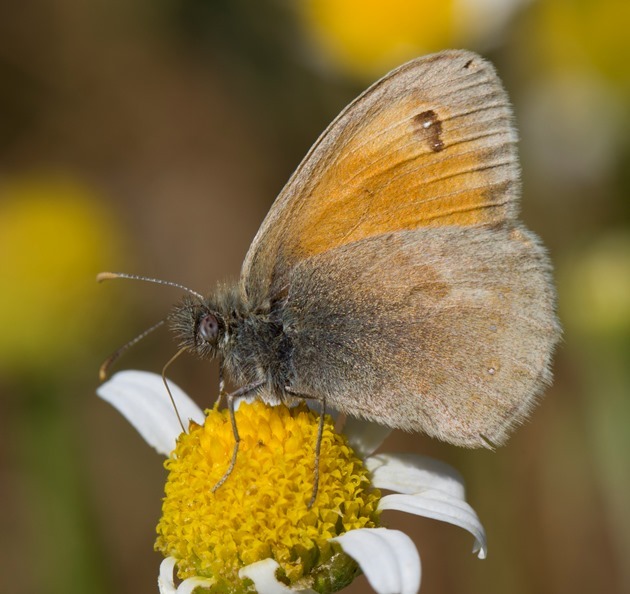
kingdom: Animalia
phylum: Arthropoda
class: Insecta
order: Lepidoptera
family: Nymphalidae
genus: Coenonympha
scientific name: Coenonympha pamphilus
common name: Small heath
